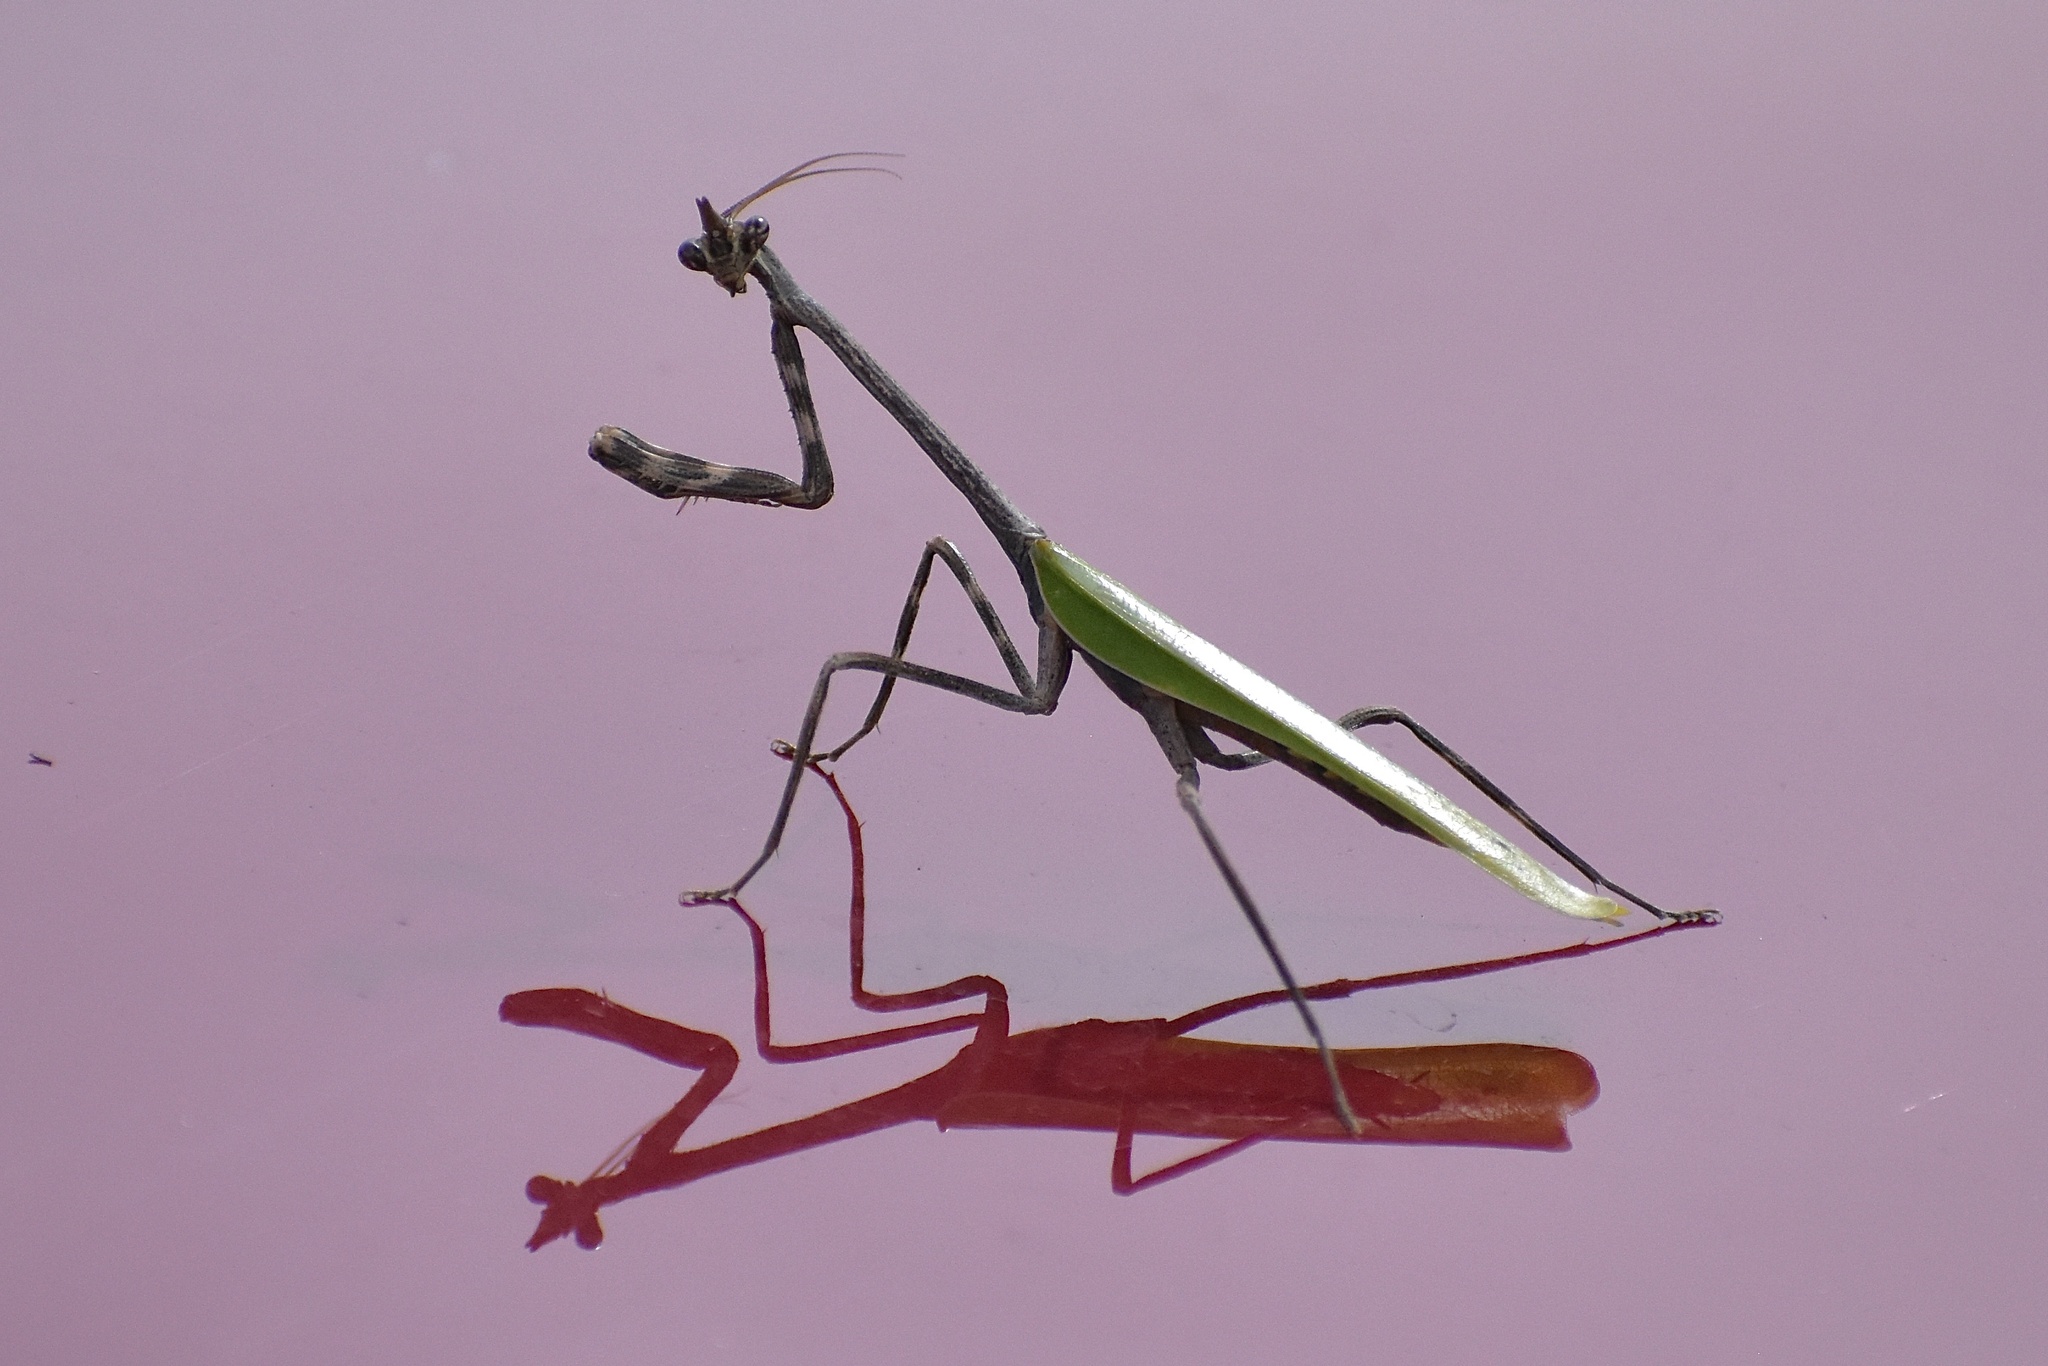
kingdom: Animalia
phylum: Arthropoda
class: Insecta
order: Mantodea
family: Mantidae
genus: Pseudovates
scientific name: Pseudovates chlorophaea
